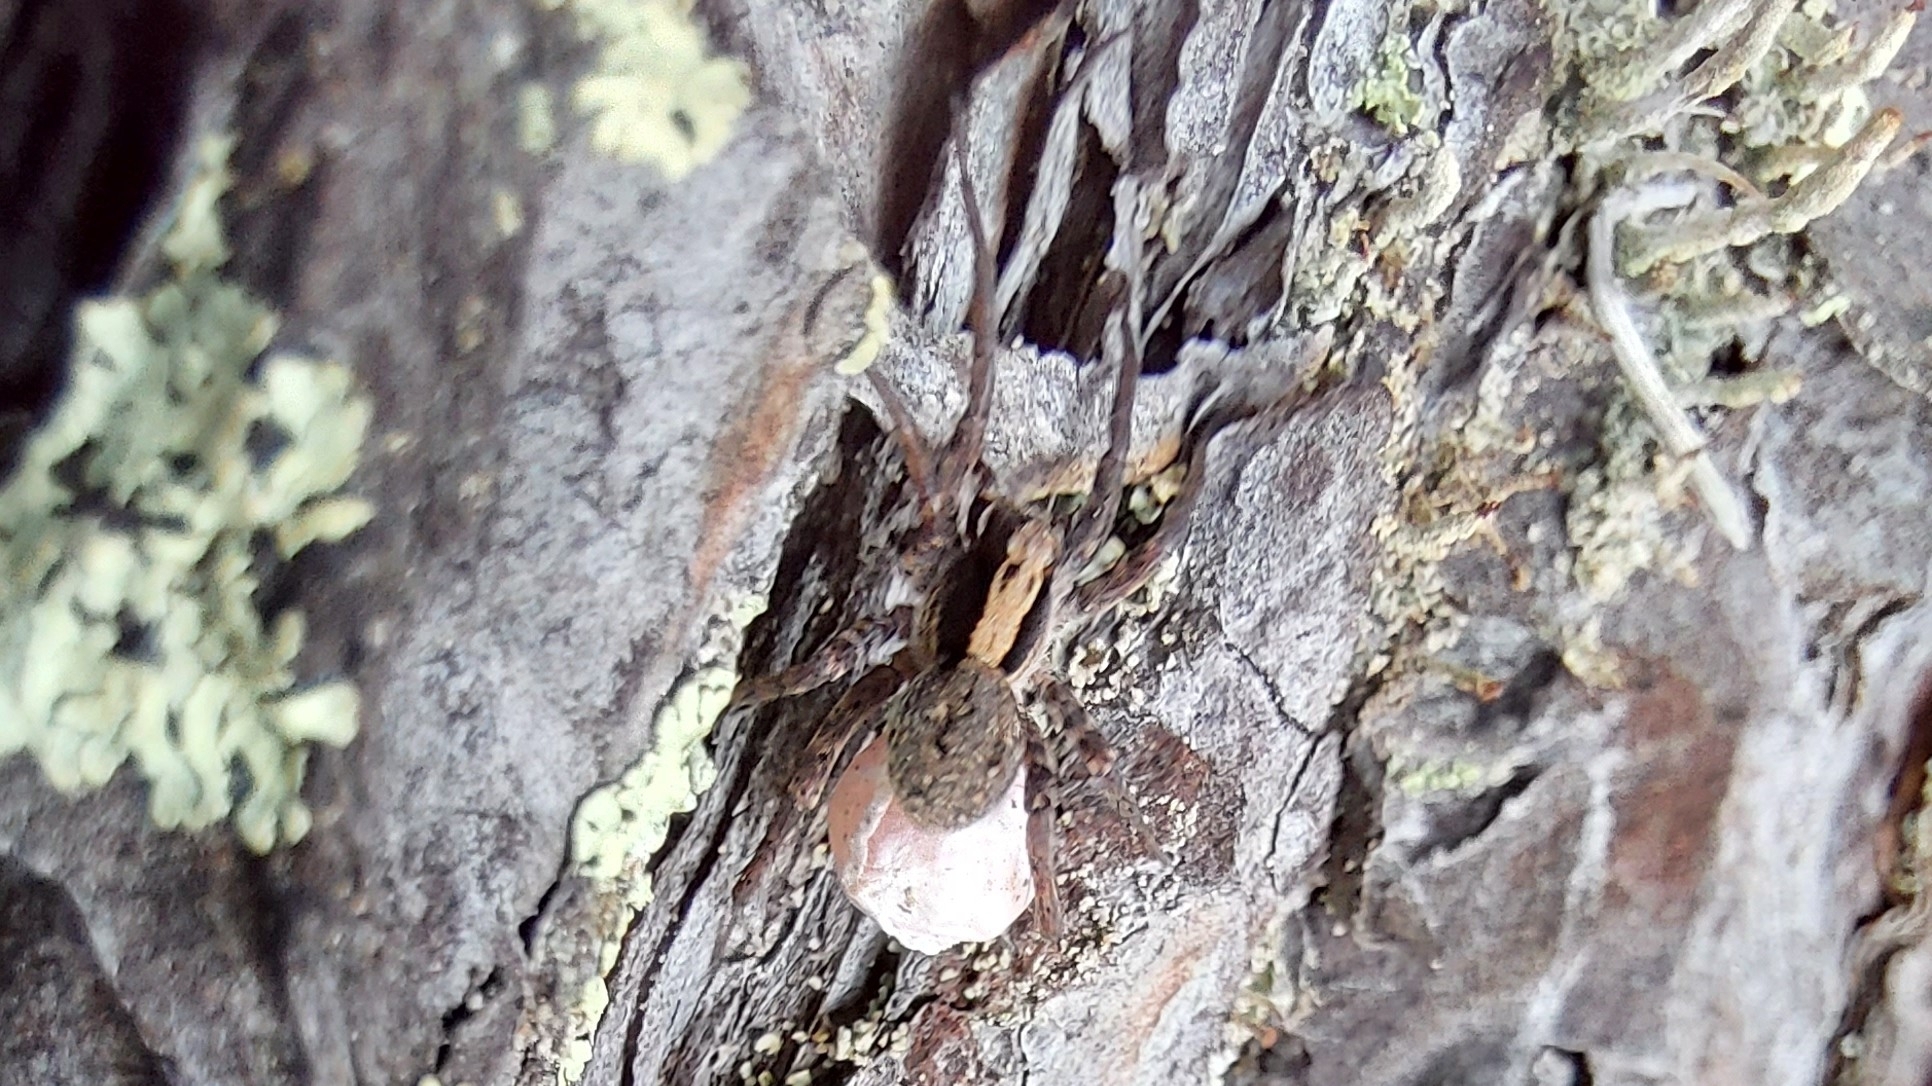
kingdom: Animalia
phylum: Arthropoda
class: Arachnida
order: Araneae
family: Lycosidae
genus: Xerolycosa
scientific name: Xerolycosa nemoralis
